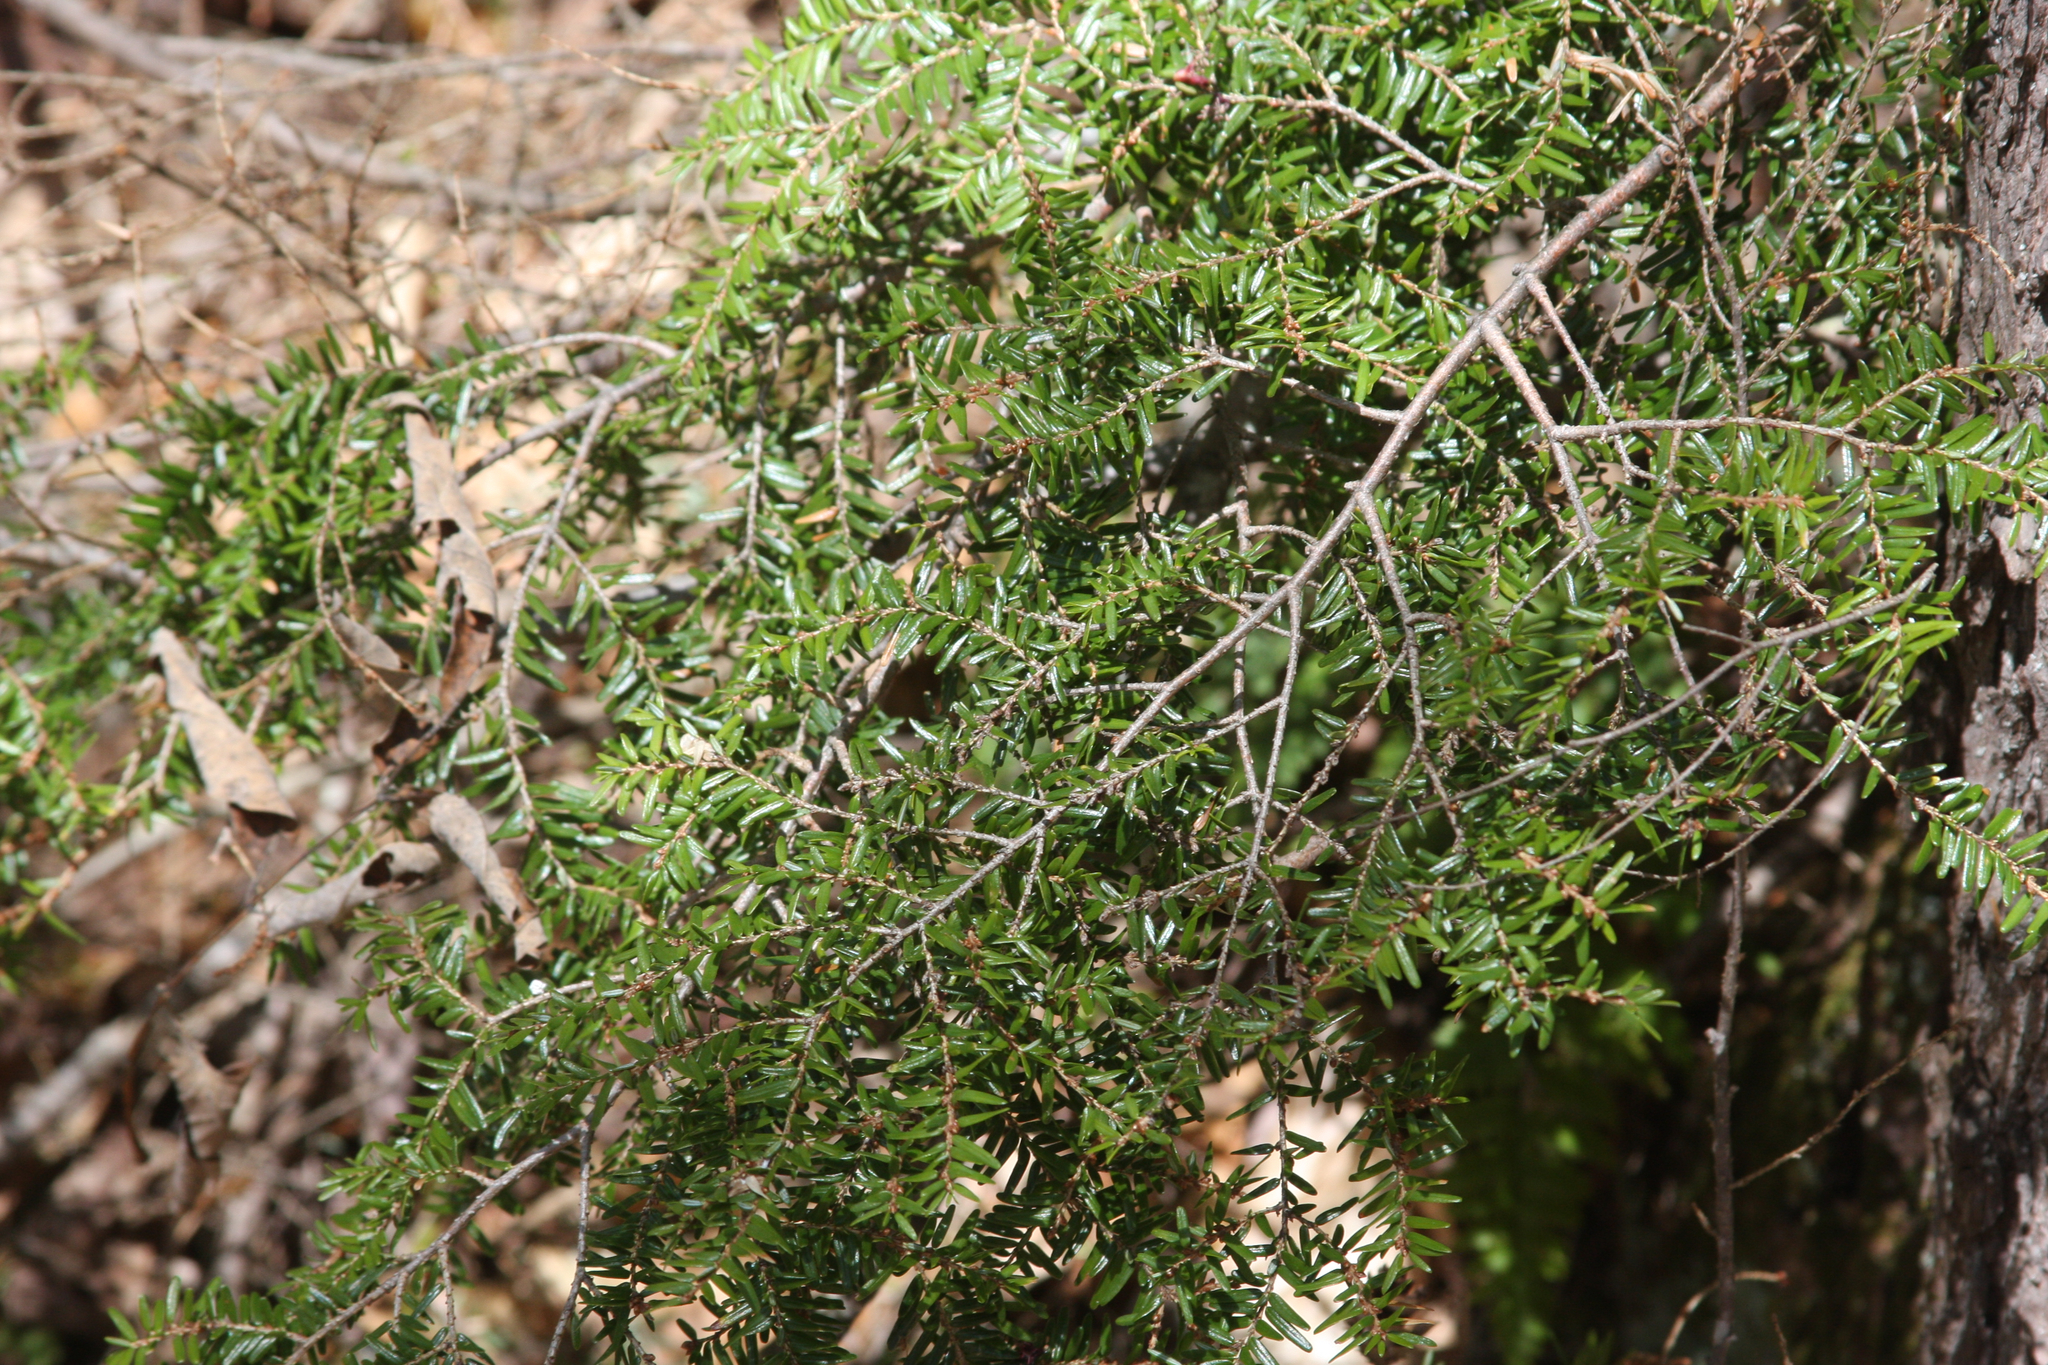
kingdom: Plantae
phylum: Tracheophyta
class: Pinopsida
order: Pinales
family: Pinaceae
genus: Tsuga
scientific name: Tsuga canadensis
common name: Eastern hemlock
